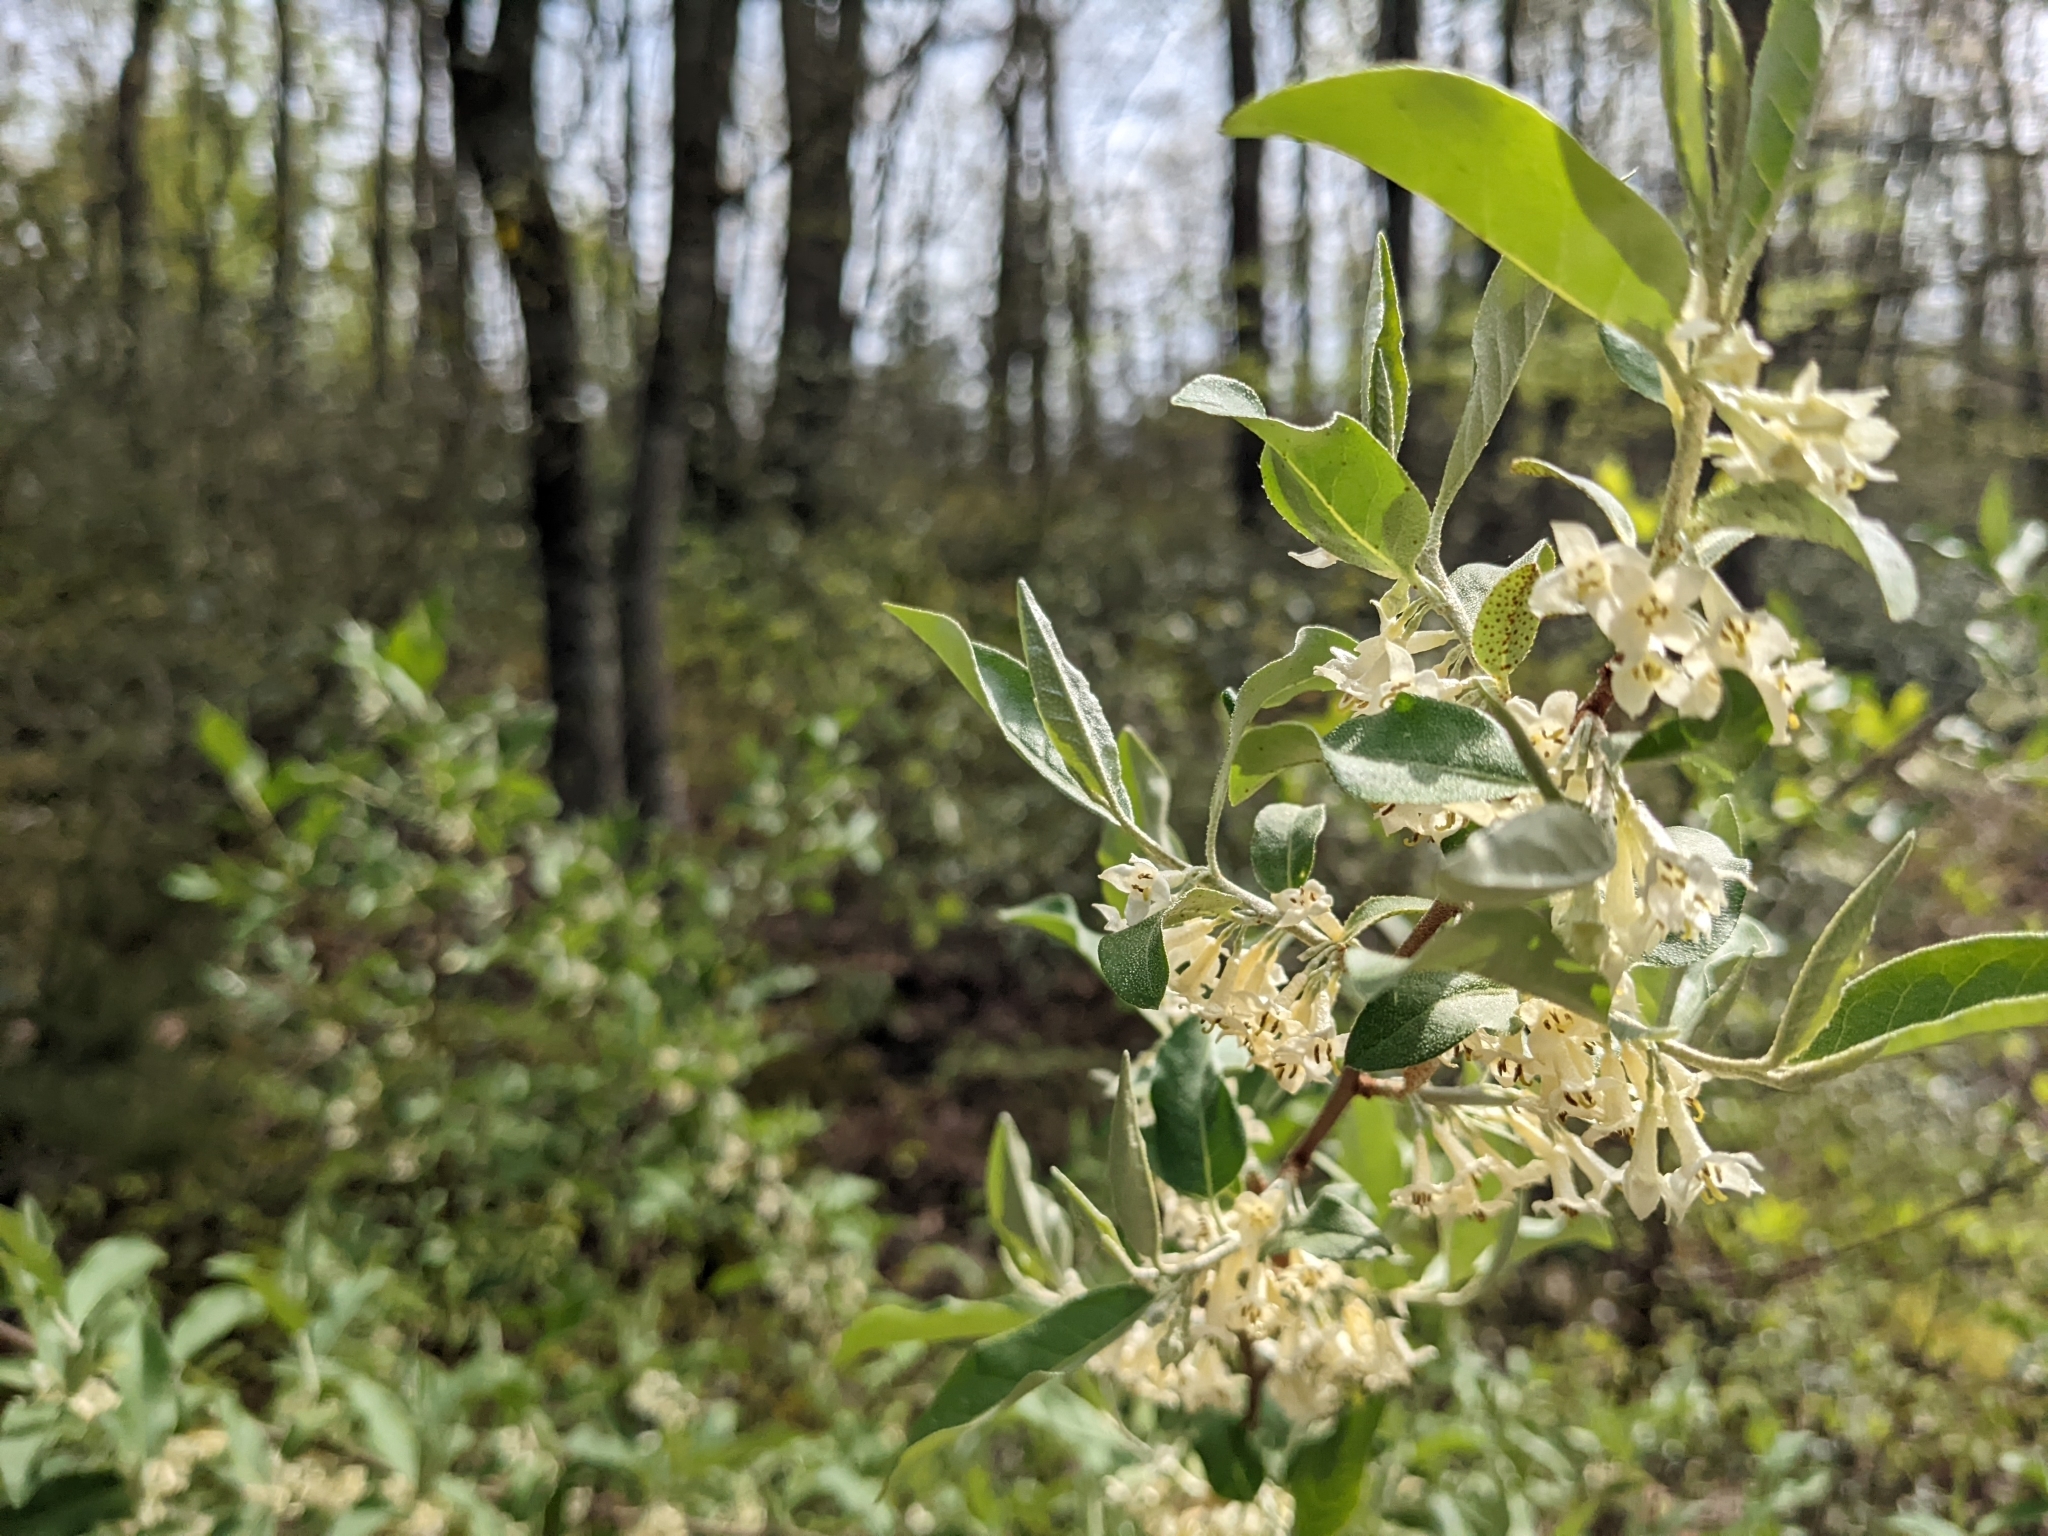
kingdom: Plantae
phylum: Tracheophyta
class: Magnoliopsida
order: Rosales
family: Elaeagnaceae
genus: Elaeagnus
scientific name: Elaeagnus umbellata
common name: Autumn olive
